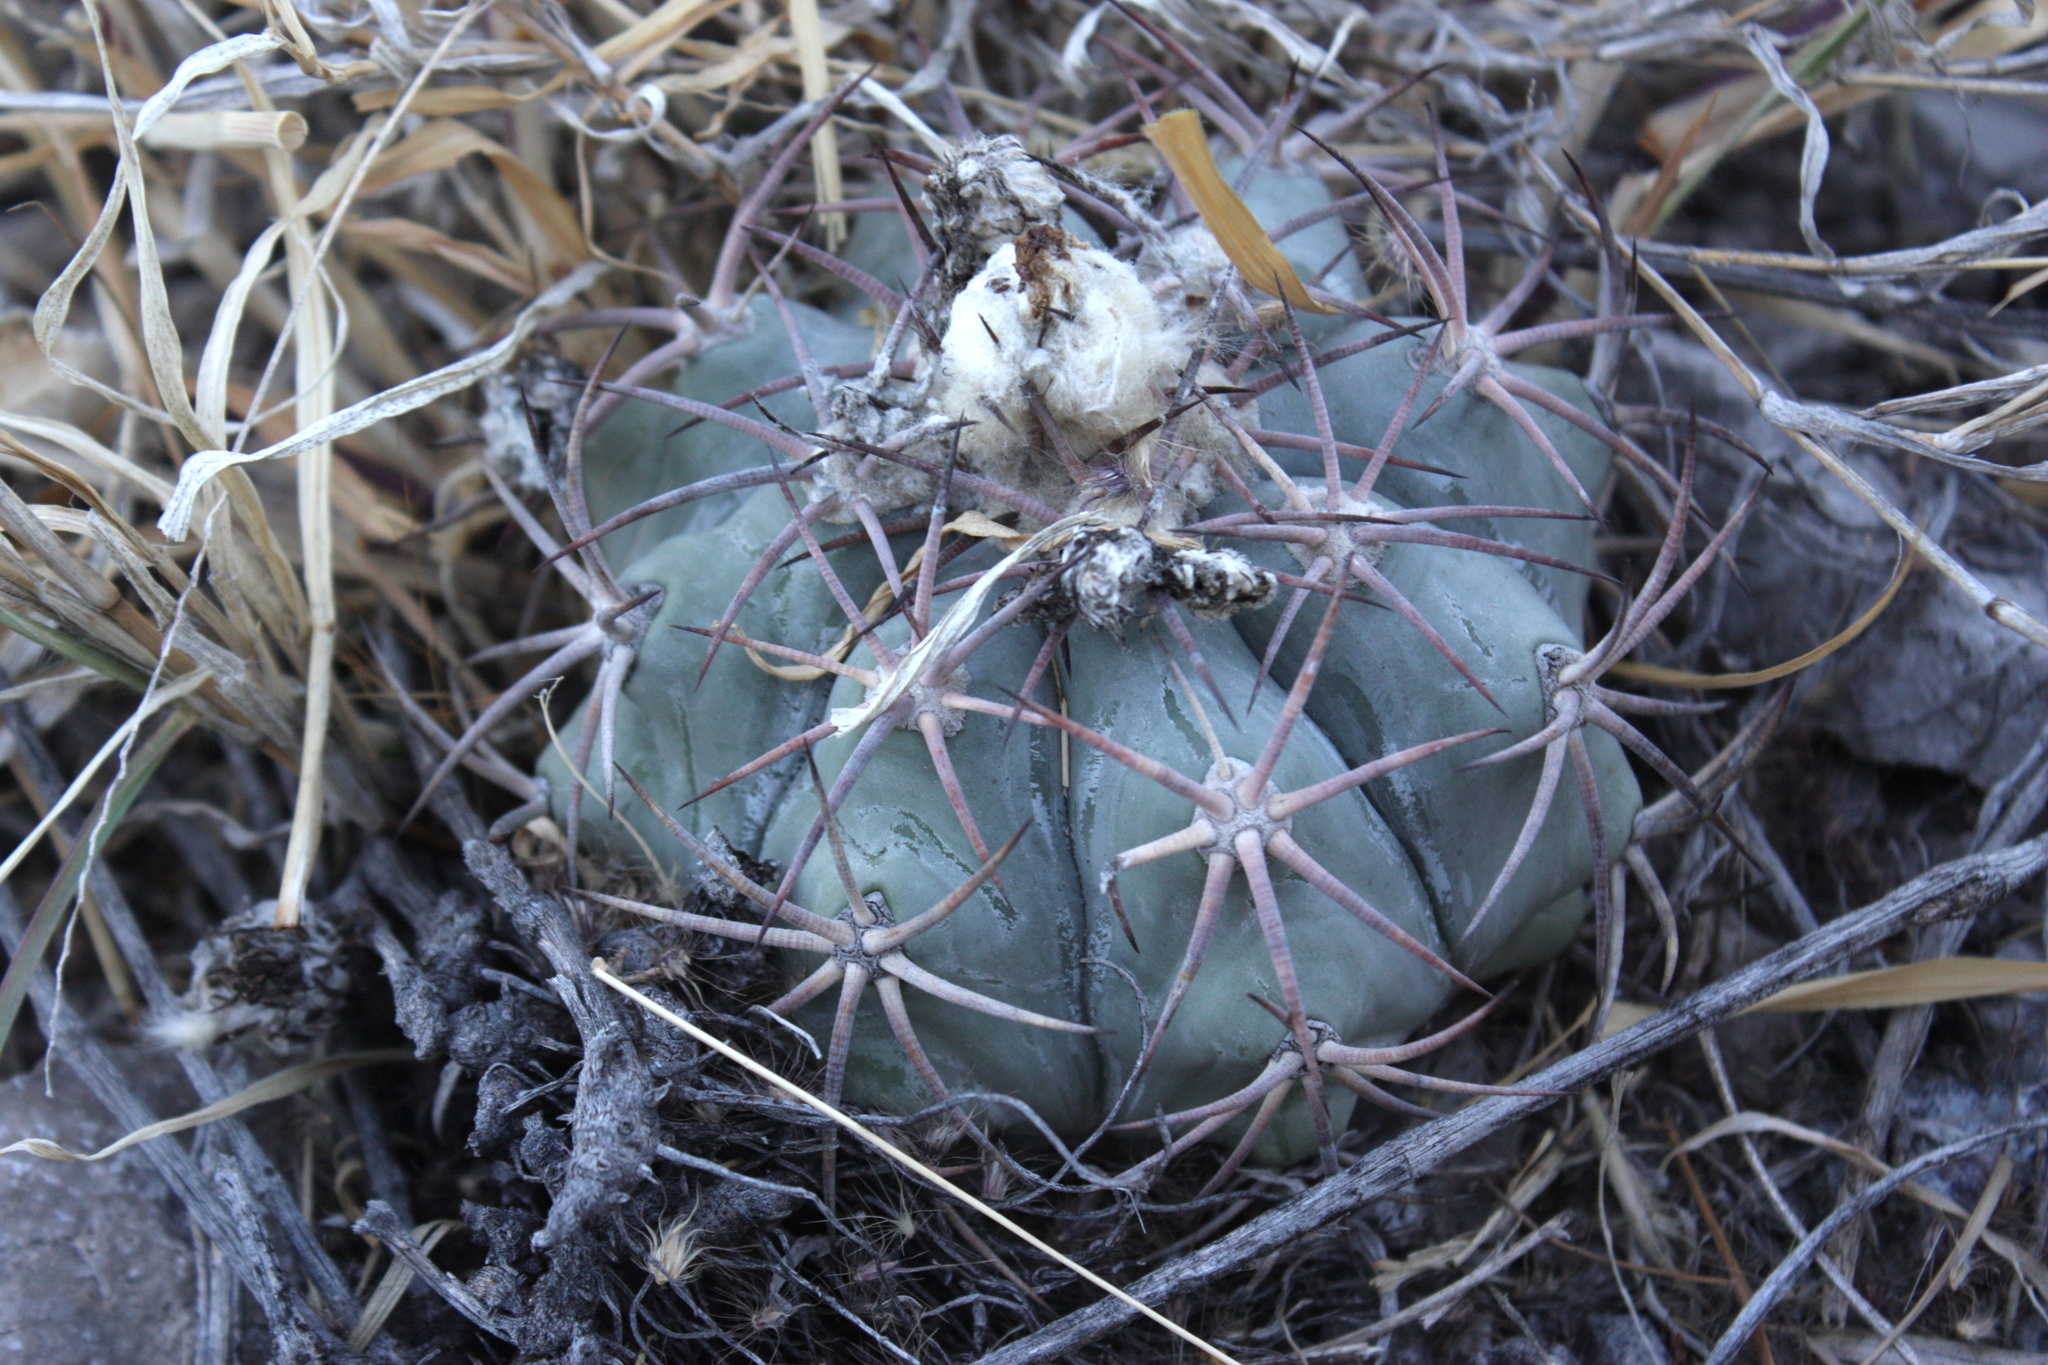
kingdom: Plantae
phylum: Tracheophyta
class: Magnoliopsida
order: Caryophyllales
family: Cactaceae
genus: Echinocactus
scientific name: Echinocactus horizonthalonius
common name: Devilshead
